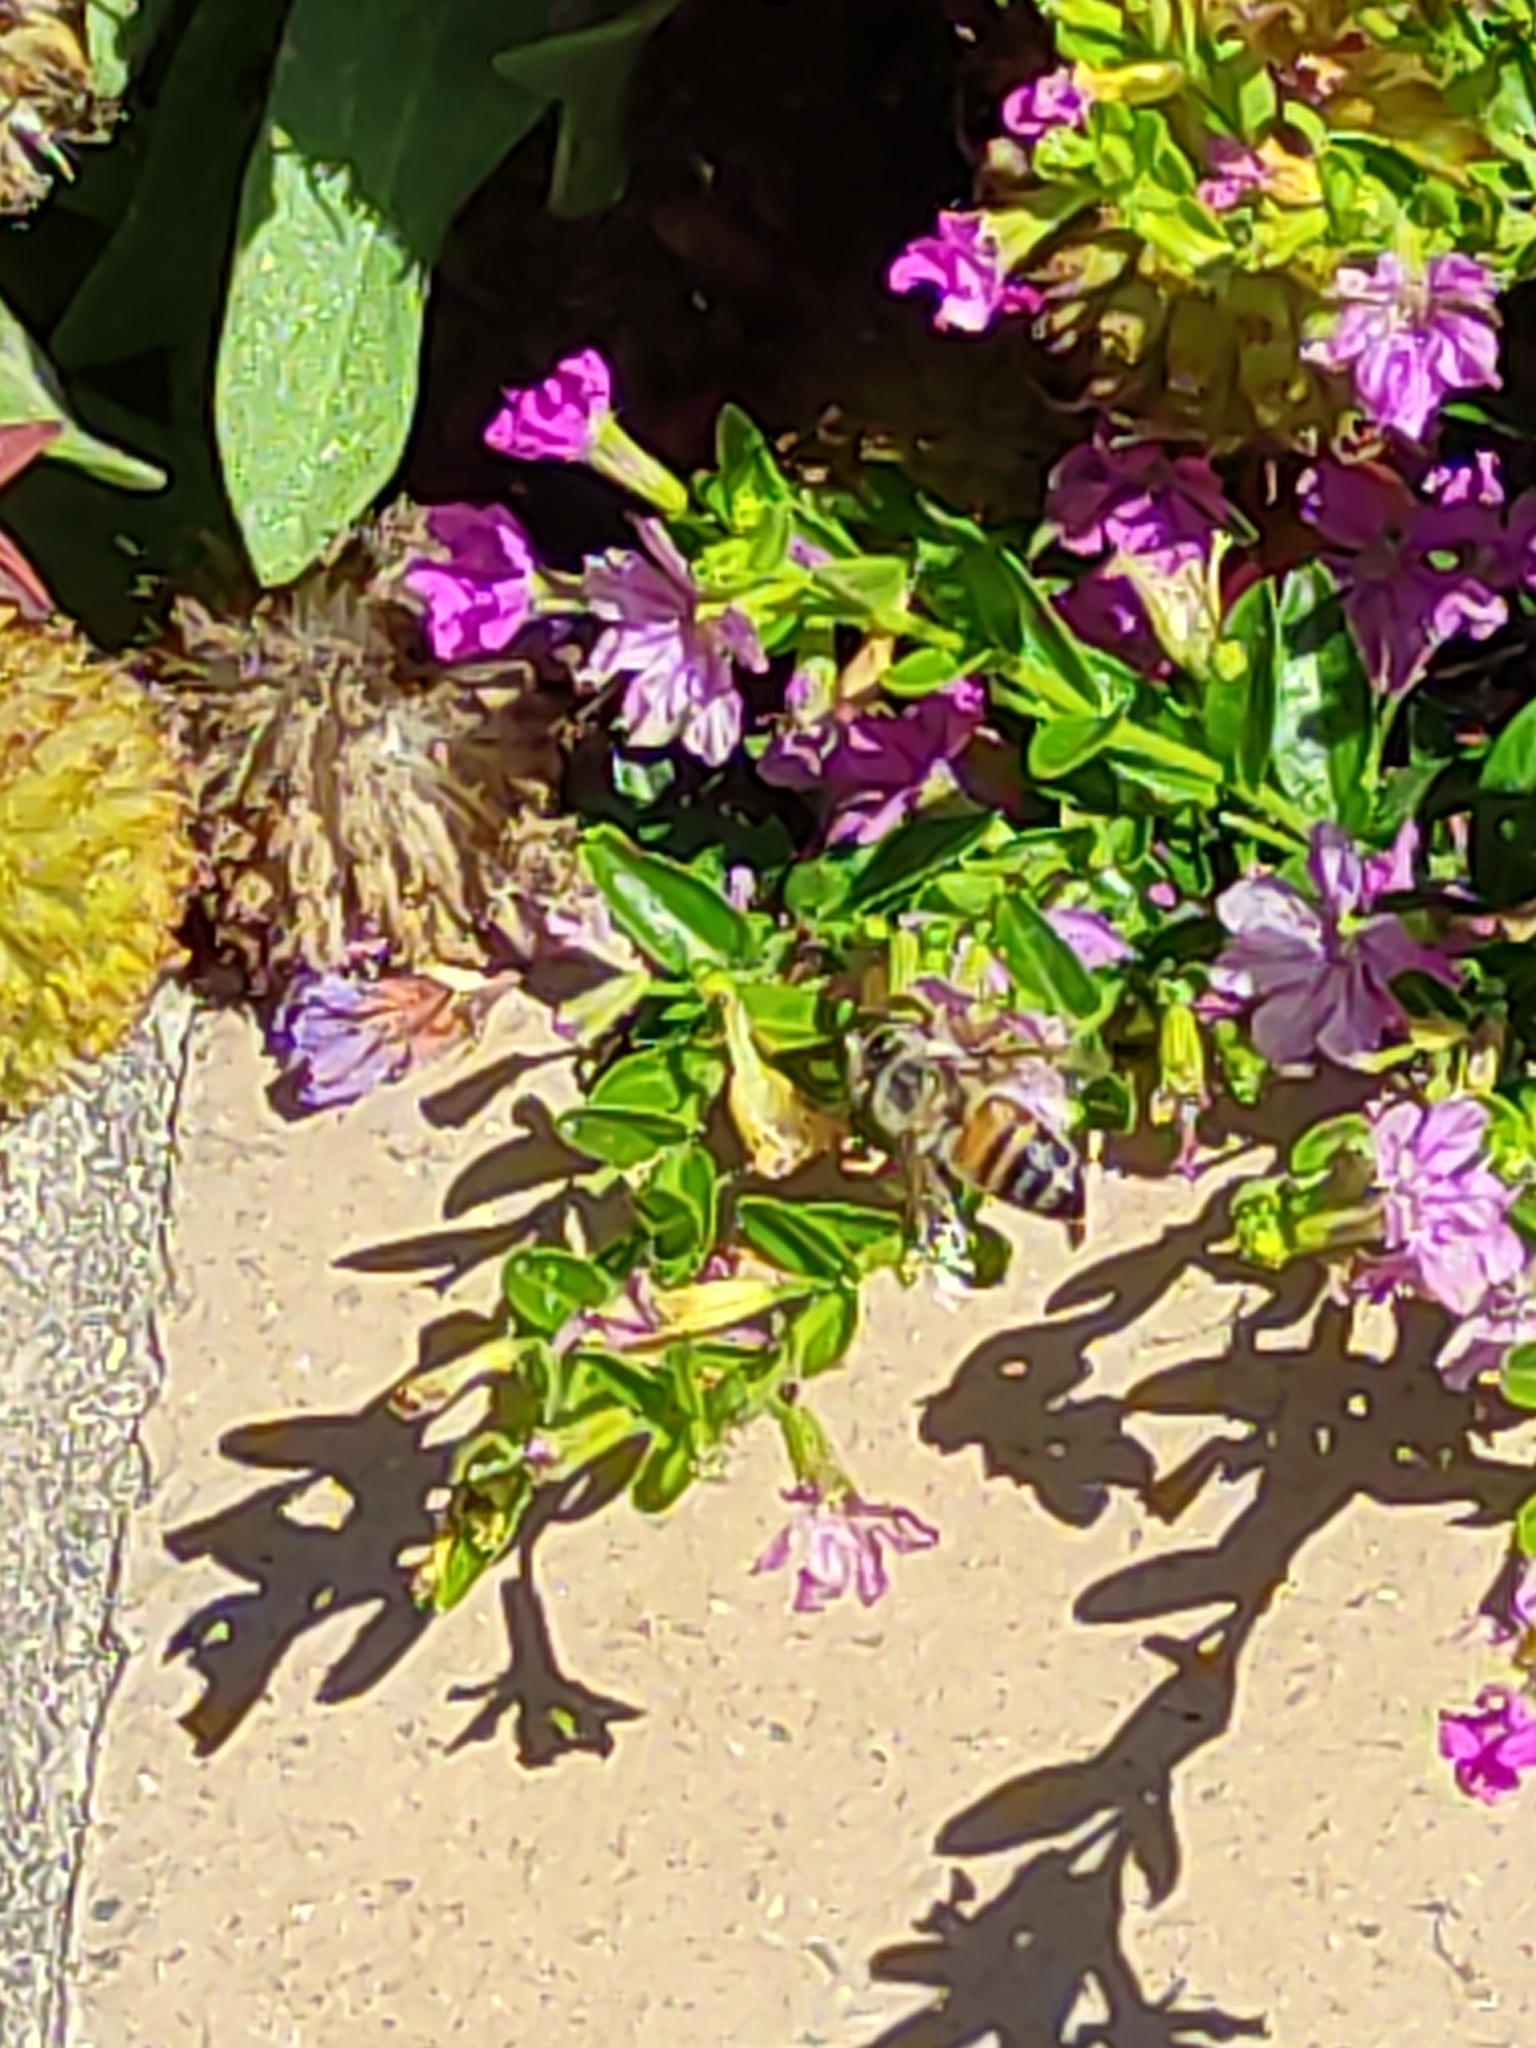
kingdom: Animalia
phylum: Arthropoda
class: Insecta
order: Hymenoptera
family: Apidae
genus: Apis
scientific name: Apis mellifera
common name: Honey bee
